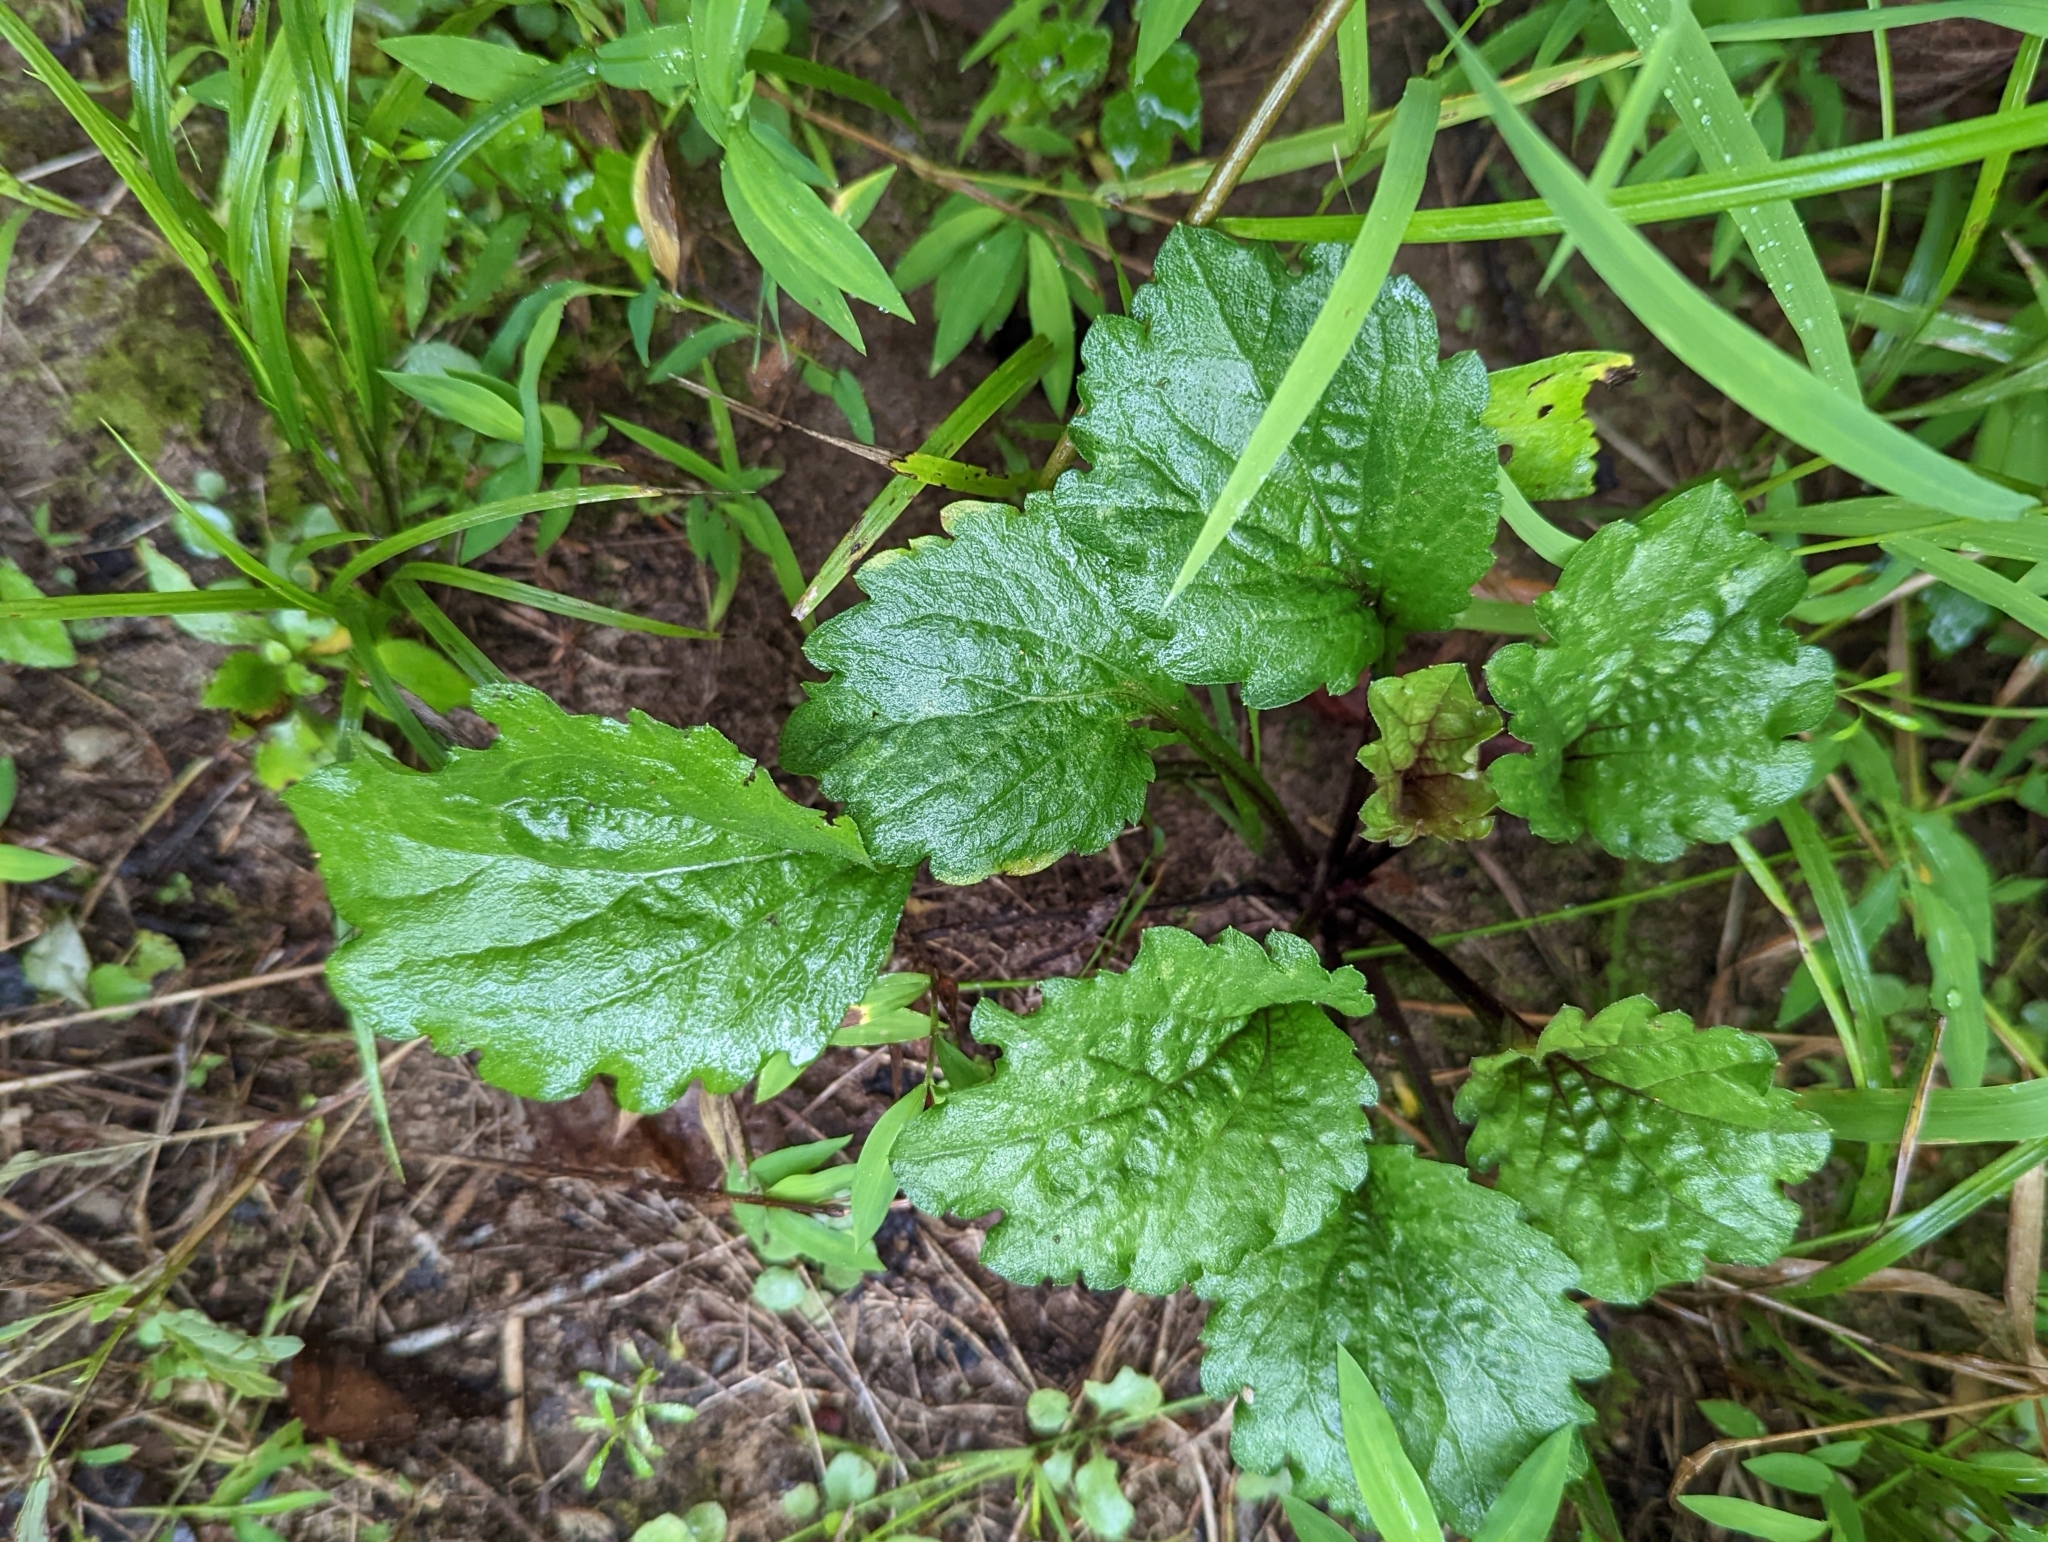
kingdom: Plantae
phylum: Tracheophyta
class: Magnoliopsida
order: Asterales
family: Asteraceae
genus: Erigeron
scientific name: Erigeron annuus
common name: Tall fleabane
